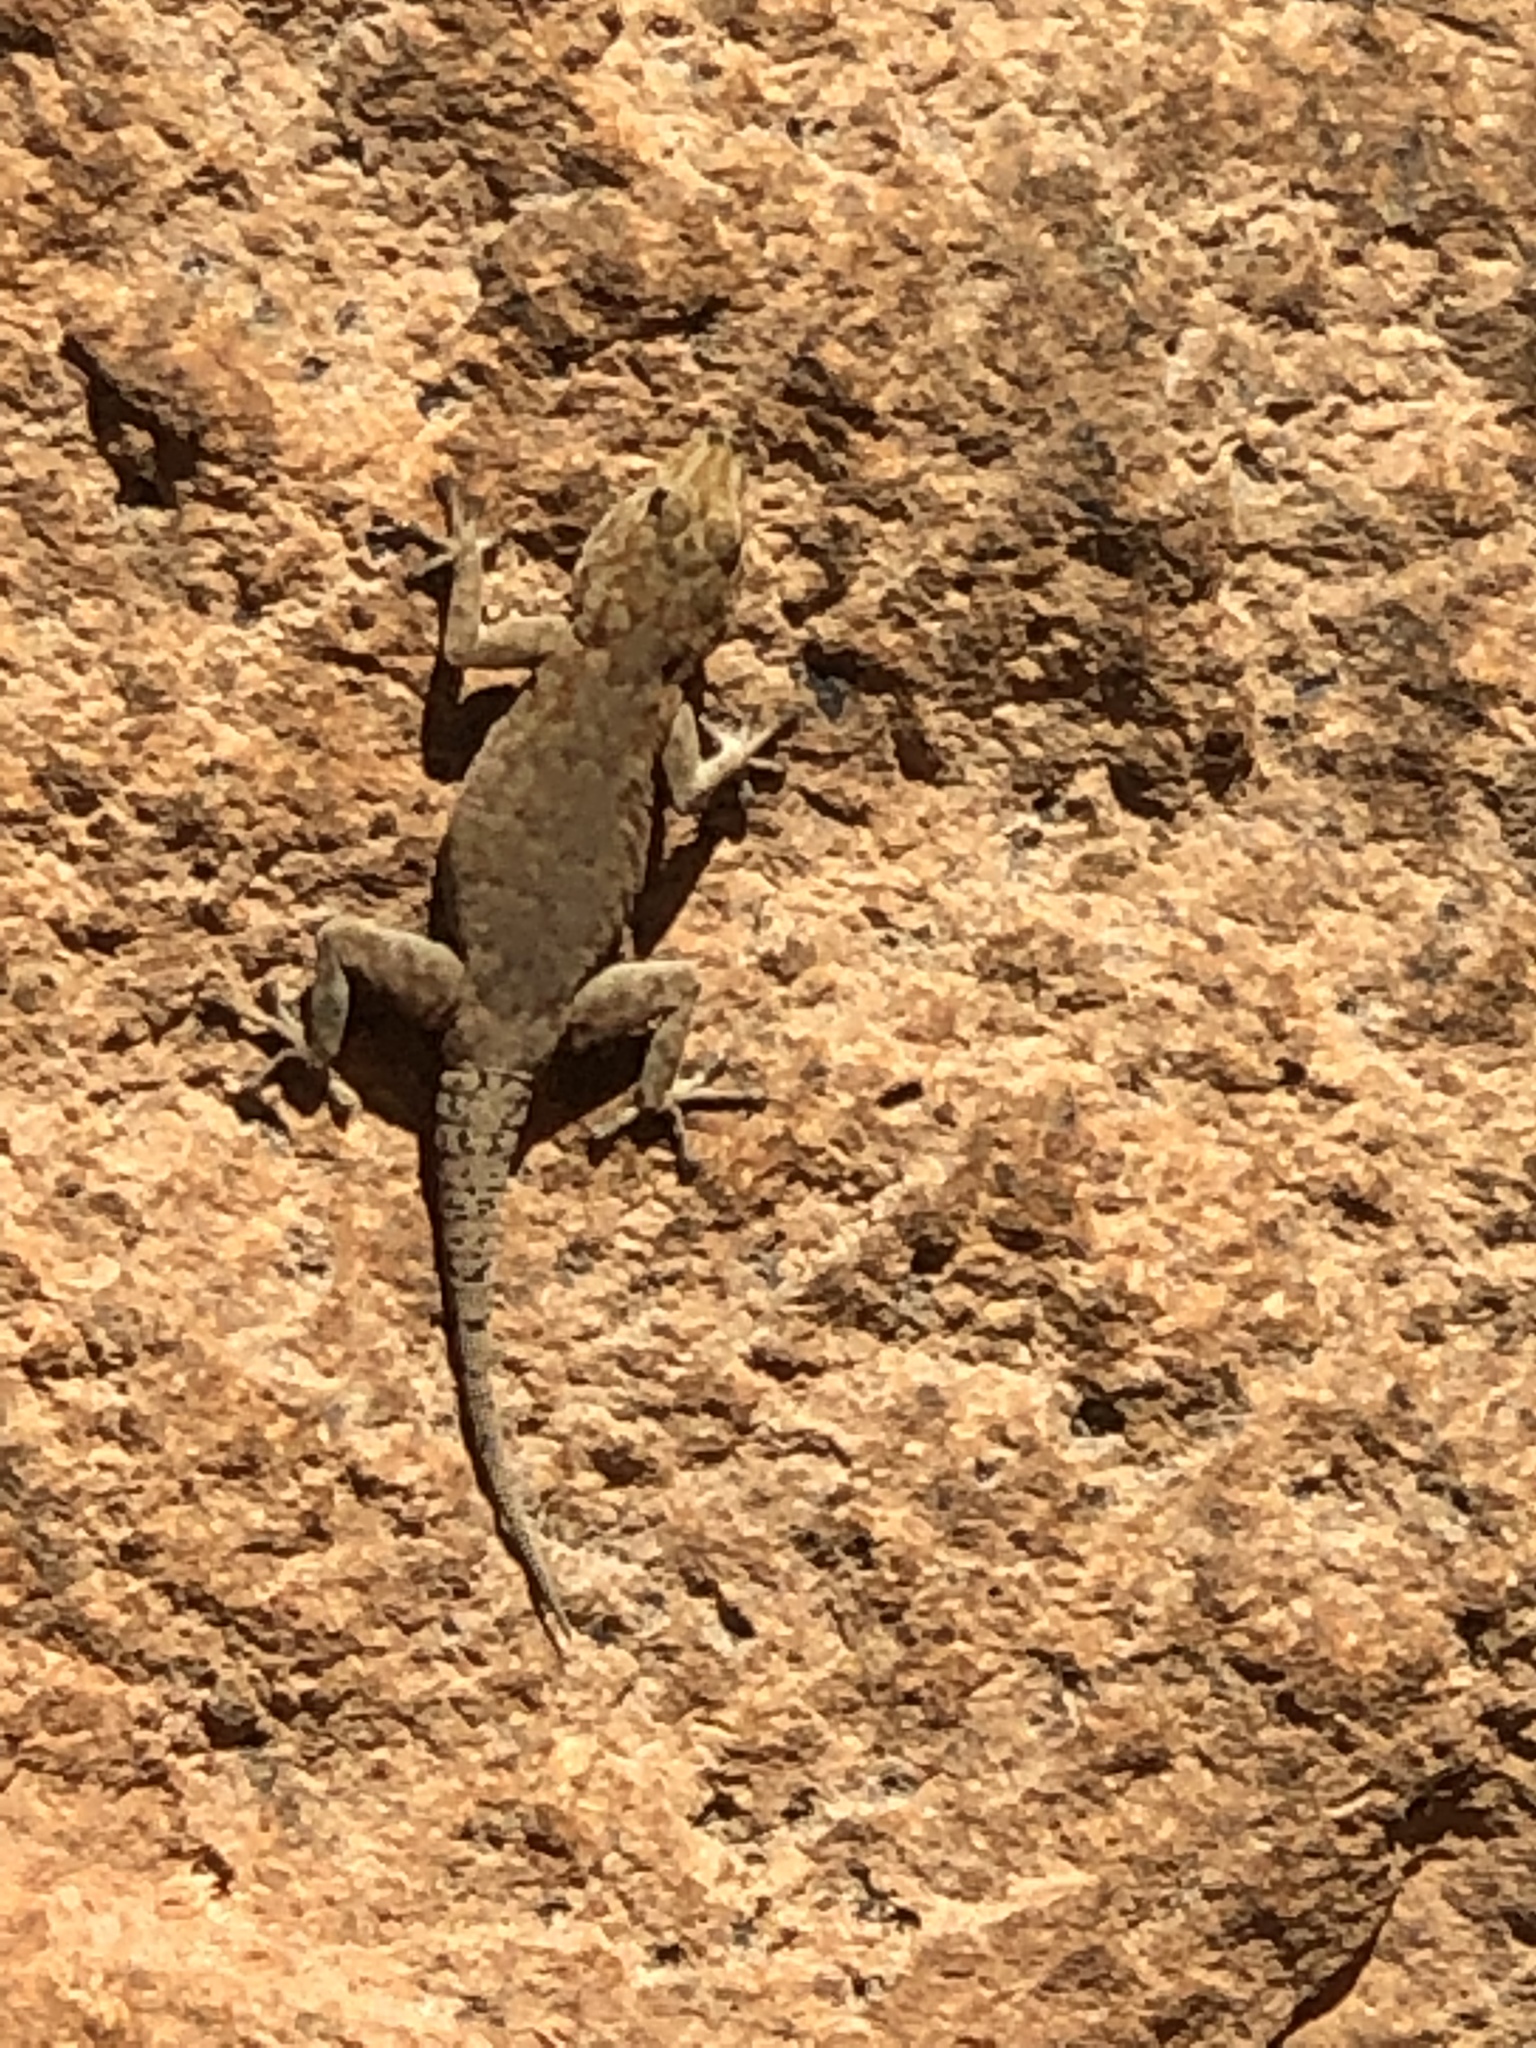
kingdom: Animalia
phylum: Chordata
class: Squamata
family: Gekkonidae
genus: Rhoptropus
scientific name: Rhoptropus boultoni
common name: Boulton’s namib day gecko
